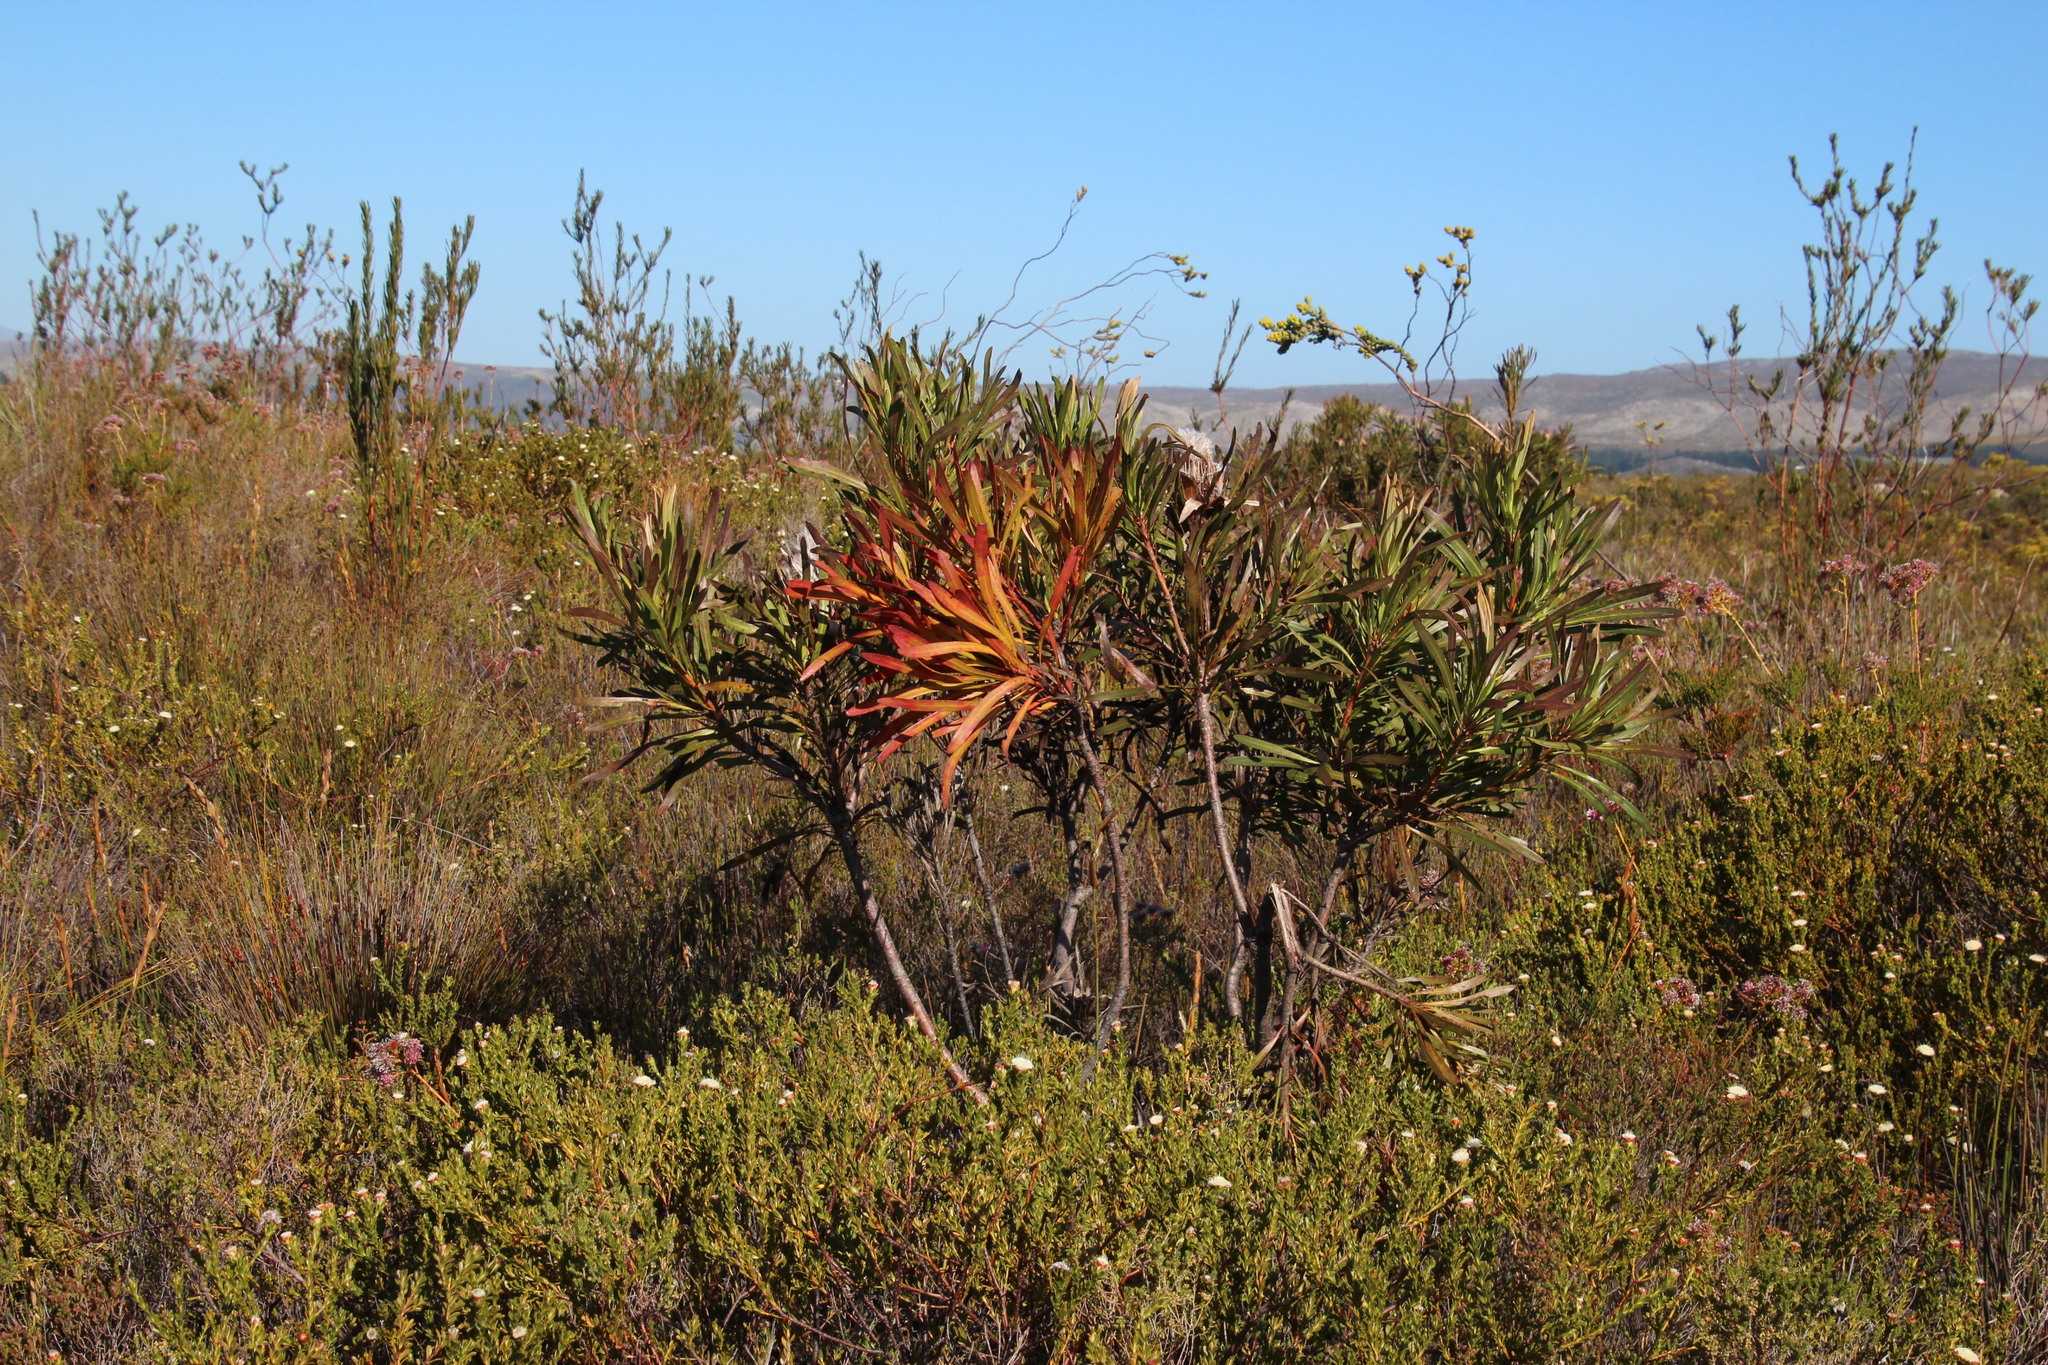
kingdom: Plantae
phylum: Tracheophyta
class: Magnoliopsida
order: Proteales
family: Proteaceae
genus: Protea
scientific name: Protea longifolia
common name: Long-leaf sugarbush
